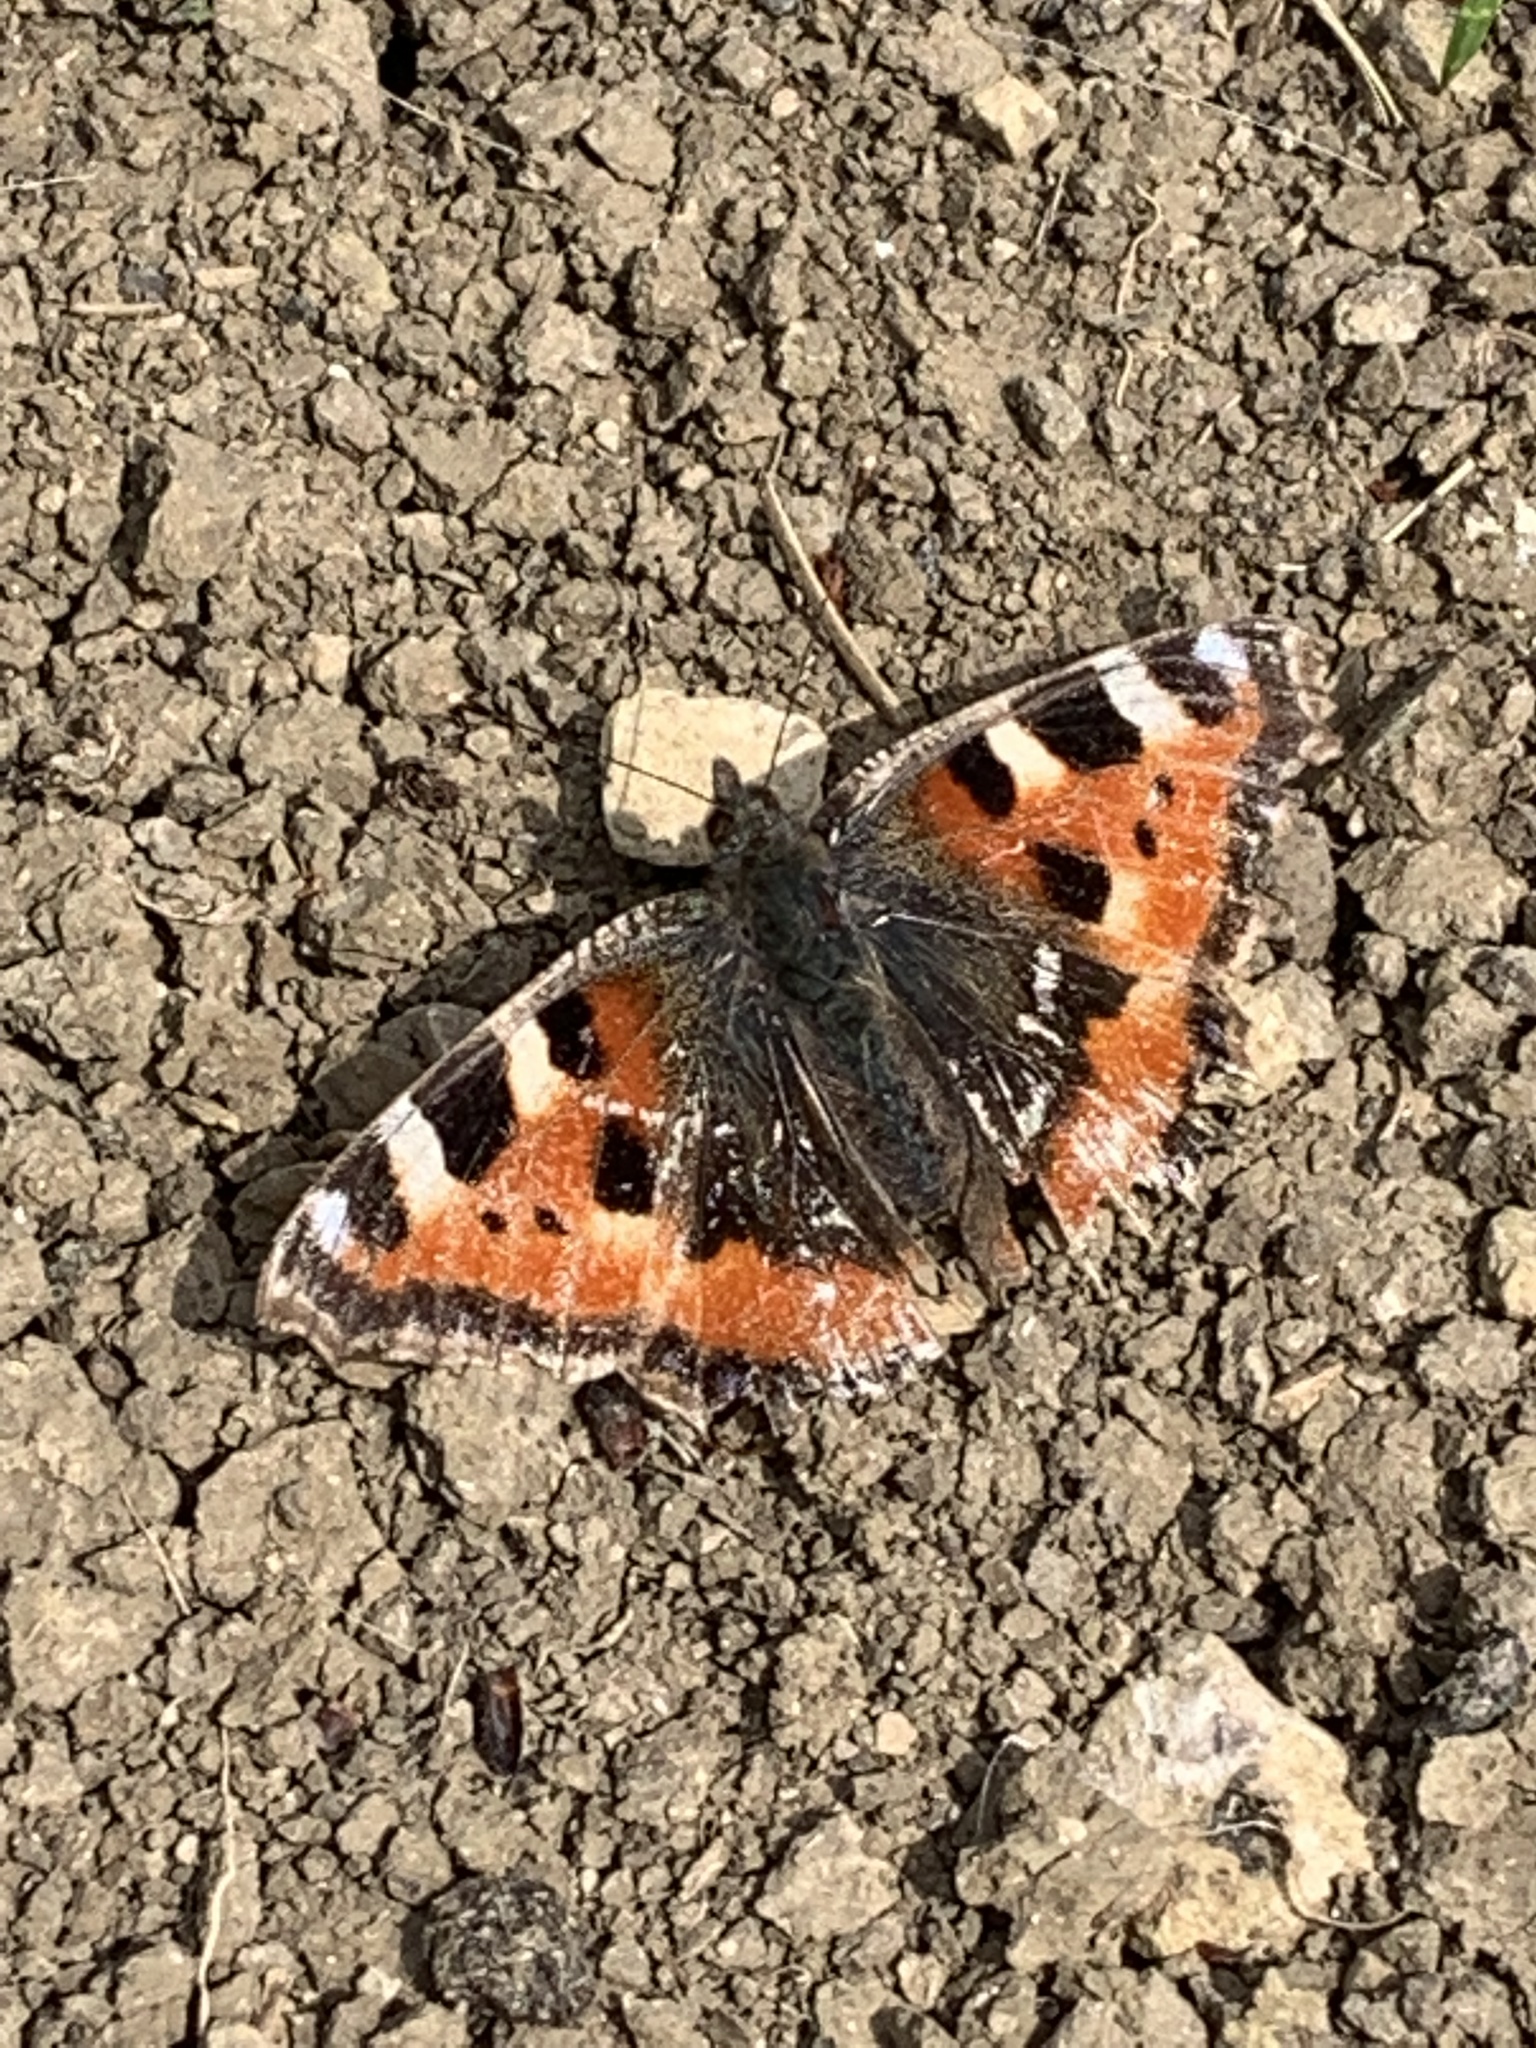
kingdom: Animalia
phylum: Arthropoda
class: Insecta
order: Lepidoptera
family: Nymphalidae
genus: Aglais
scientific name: Aglais urticae
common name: Small tortoiseshell
